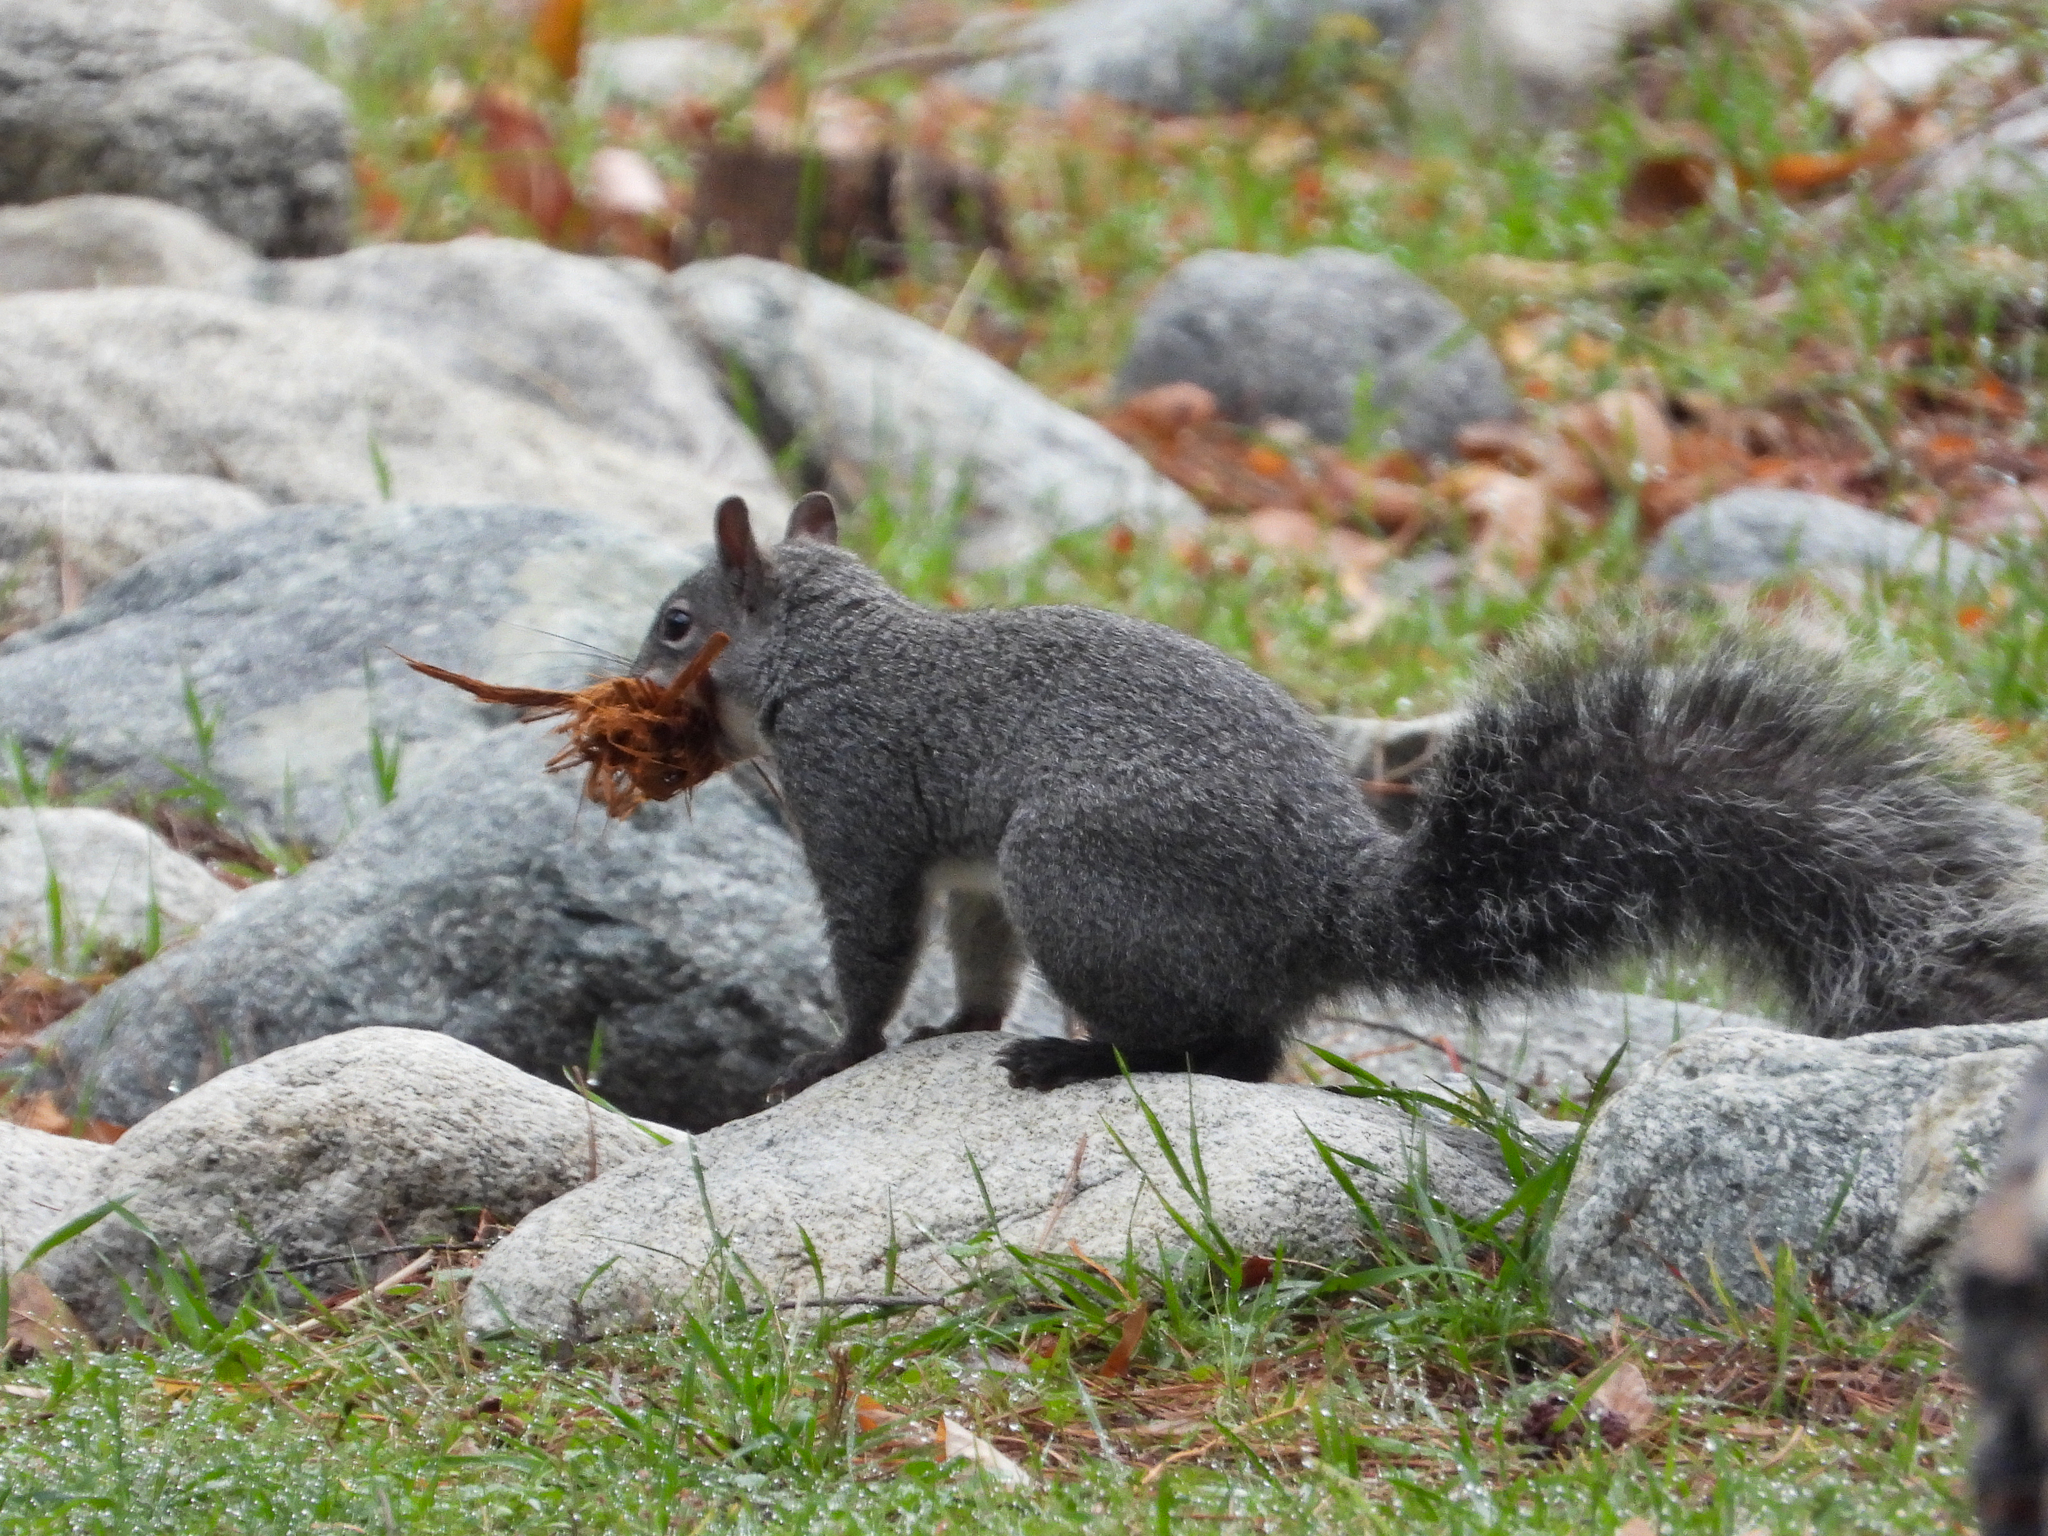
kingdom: Animalia
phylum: Chordata
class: Mammalia
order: Rodentia
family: Sciuridae
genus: Sciurus
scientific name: Sciurus griseus
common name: Western gray squirrel
